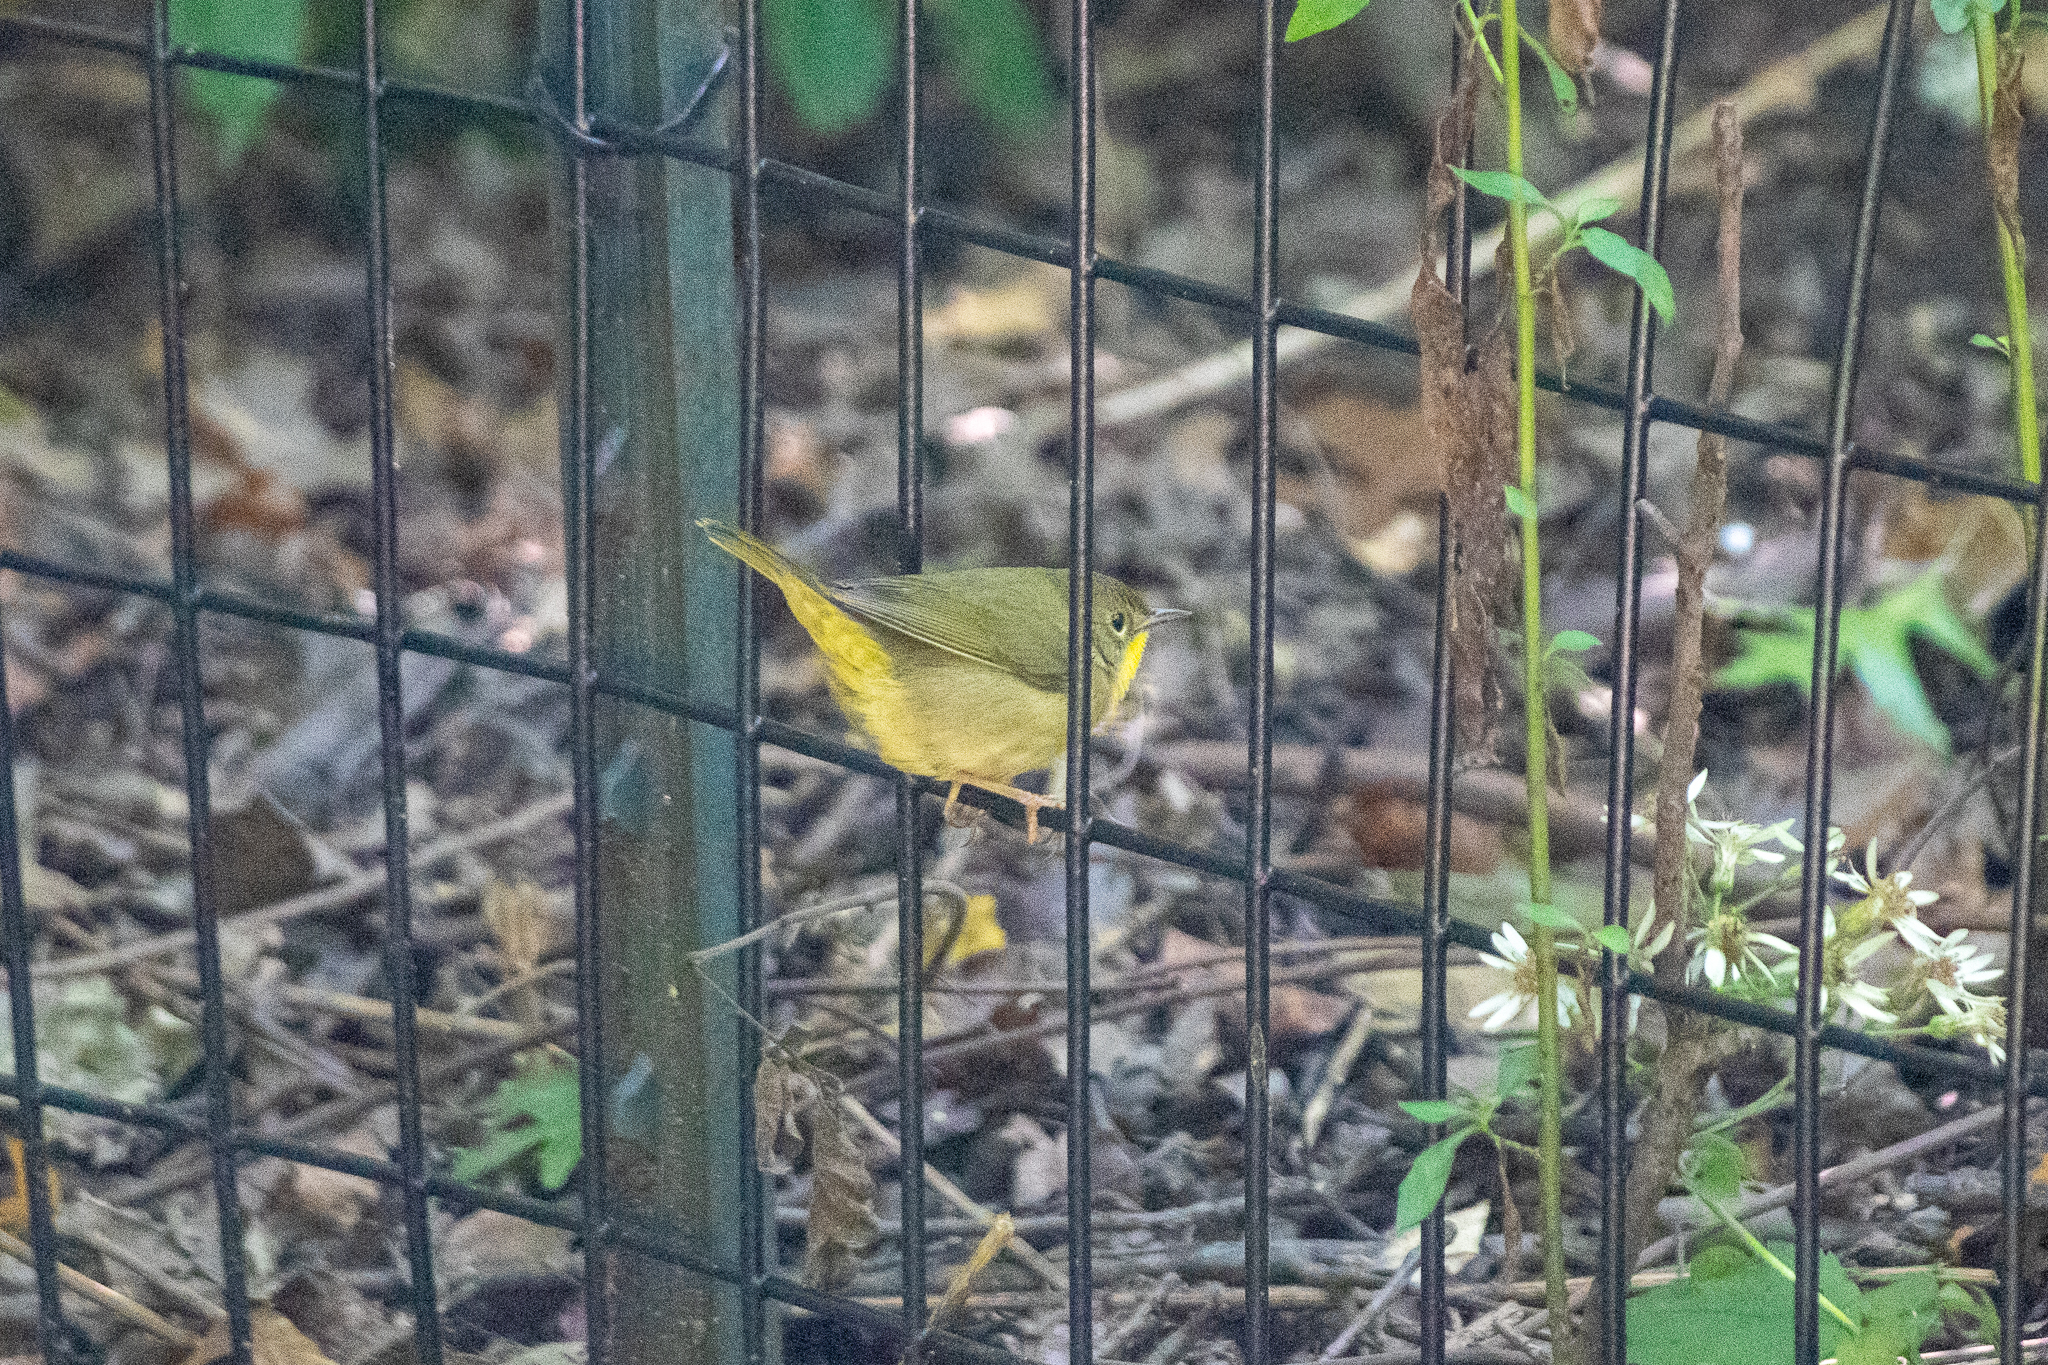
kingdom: Animalia
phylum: Chordata
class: Aves
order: Passeriformes
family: Parulidae
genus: Geothlypis
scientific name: Geothlypis trichas
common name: Common yellowthroat
